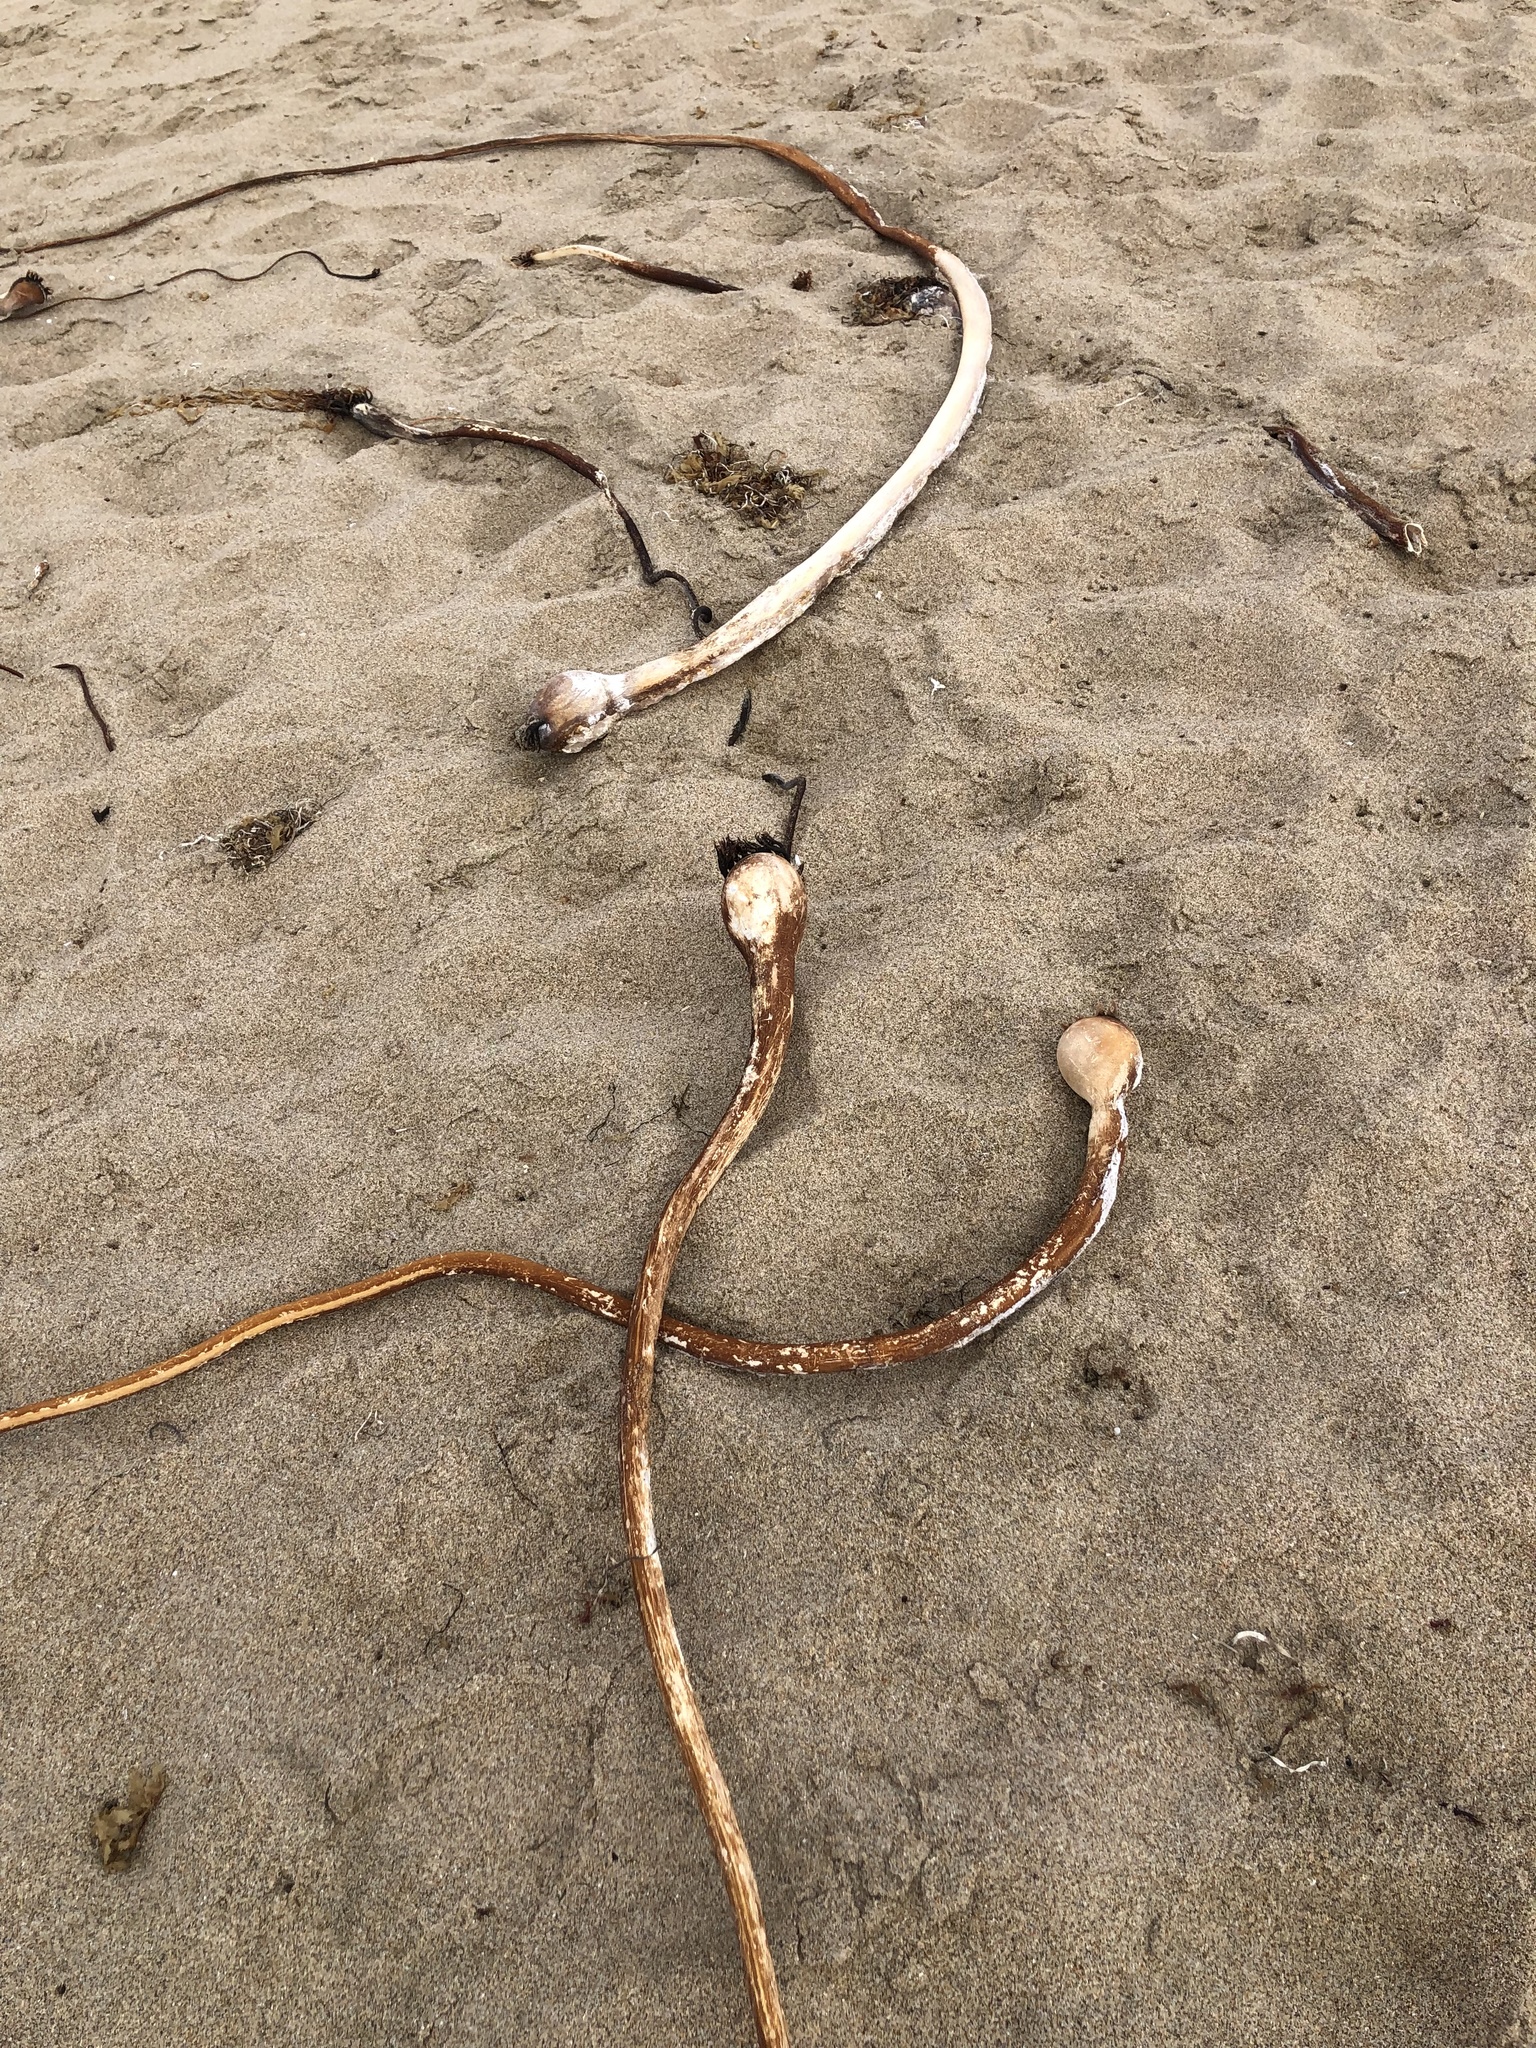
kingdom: Chromista
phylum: Ochrophyta
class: Phaeophyceae
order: Laminariales
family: Laminariaceae
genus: Nereocystis
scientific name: Nereocystis luetkeana
